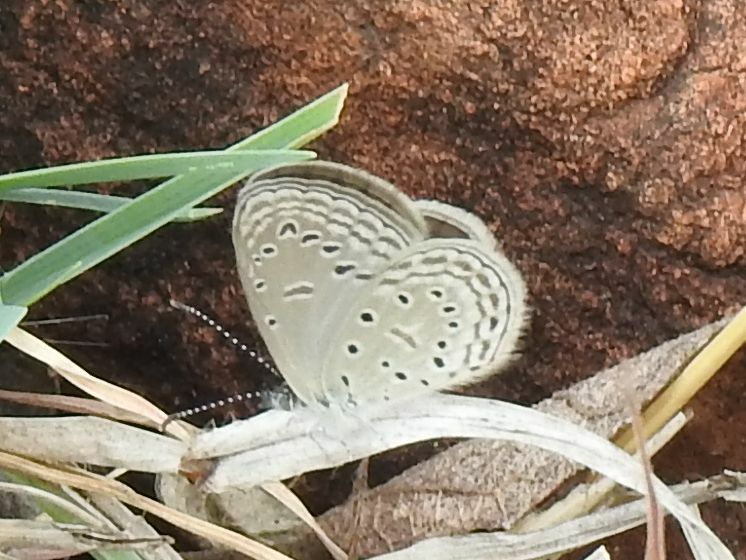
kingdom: Animalia
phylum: Arthropoda
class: Insecta
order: Lepidoptera
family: Lycaenidae
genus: Zizula
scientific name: Zizula hylax
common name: Gaika blue
